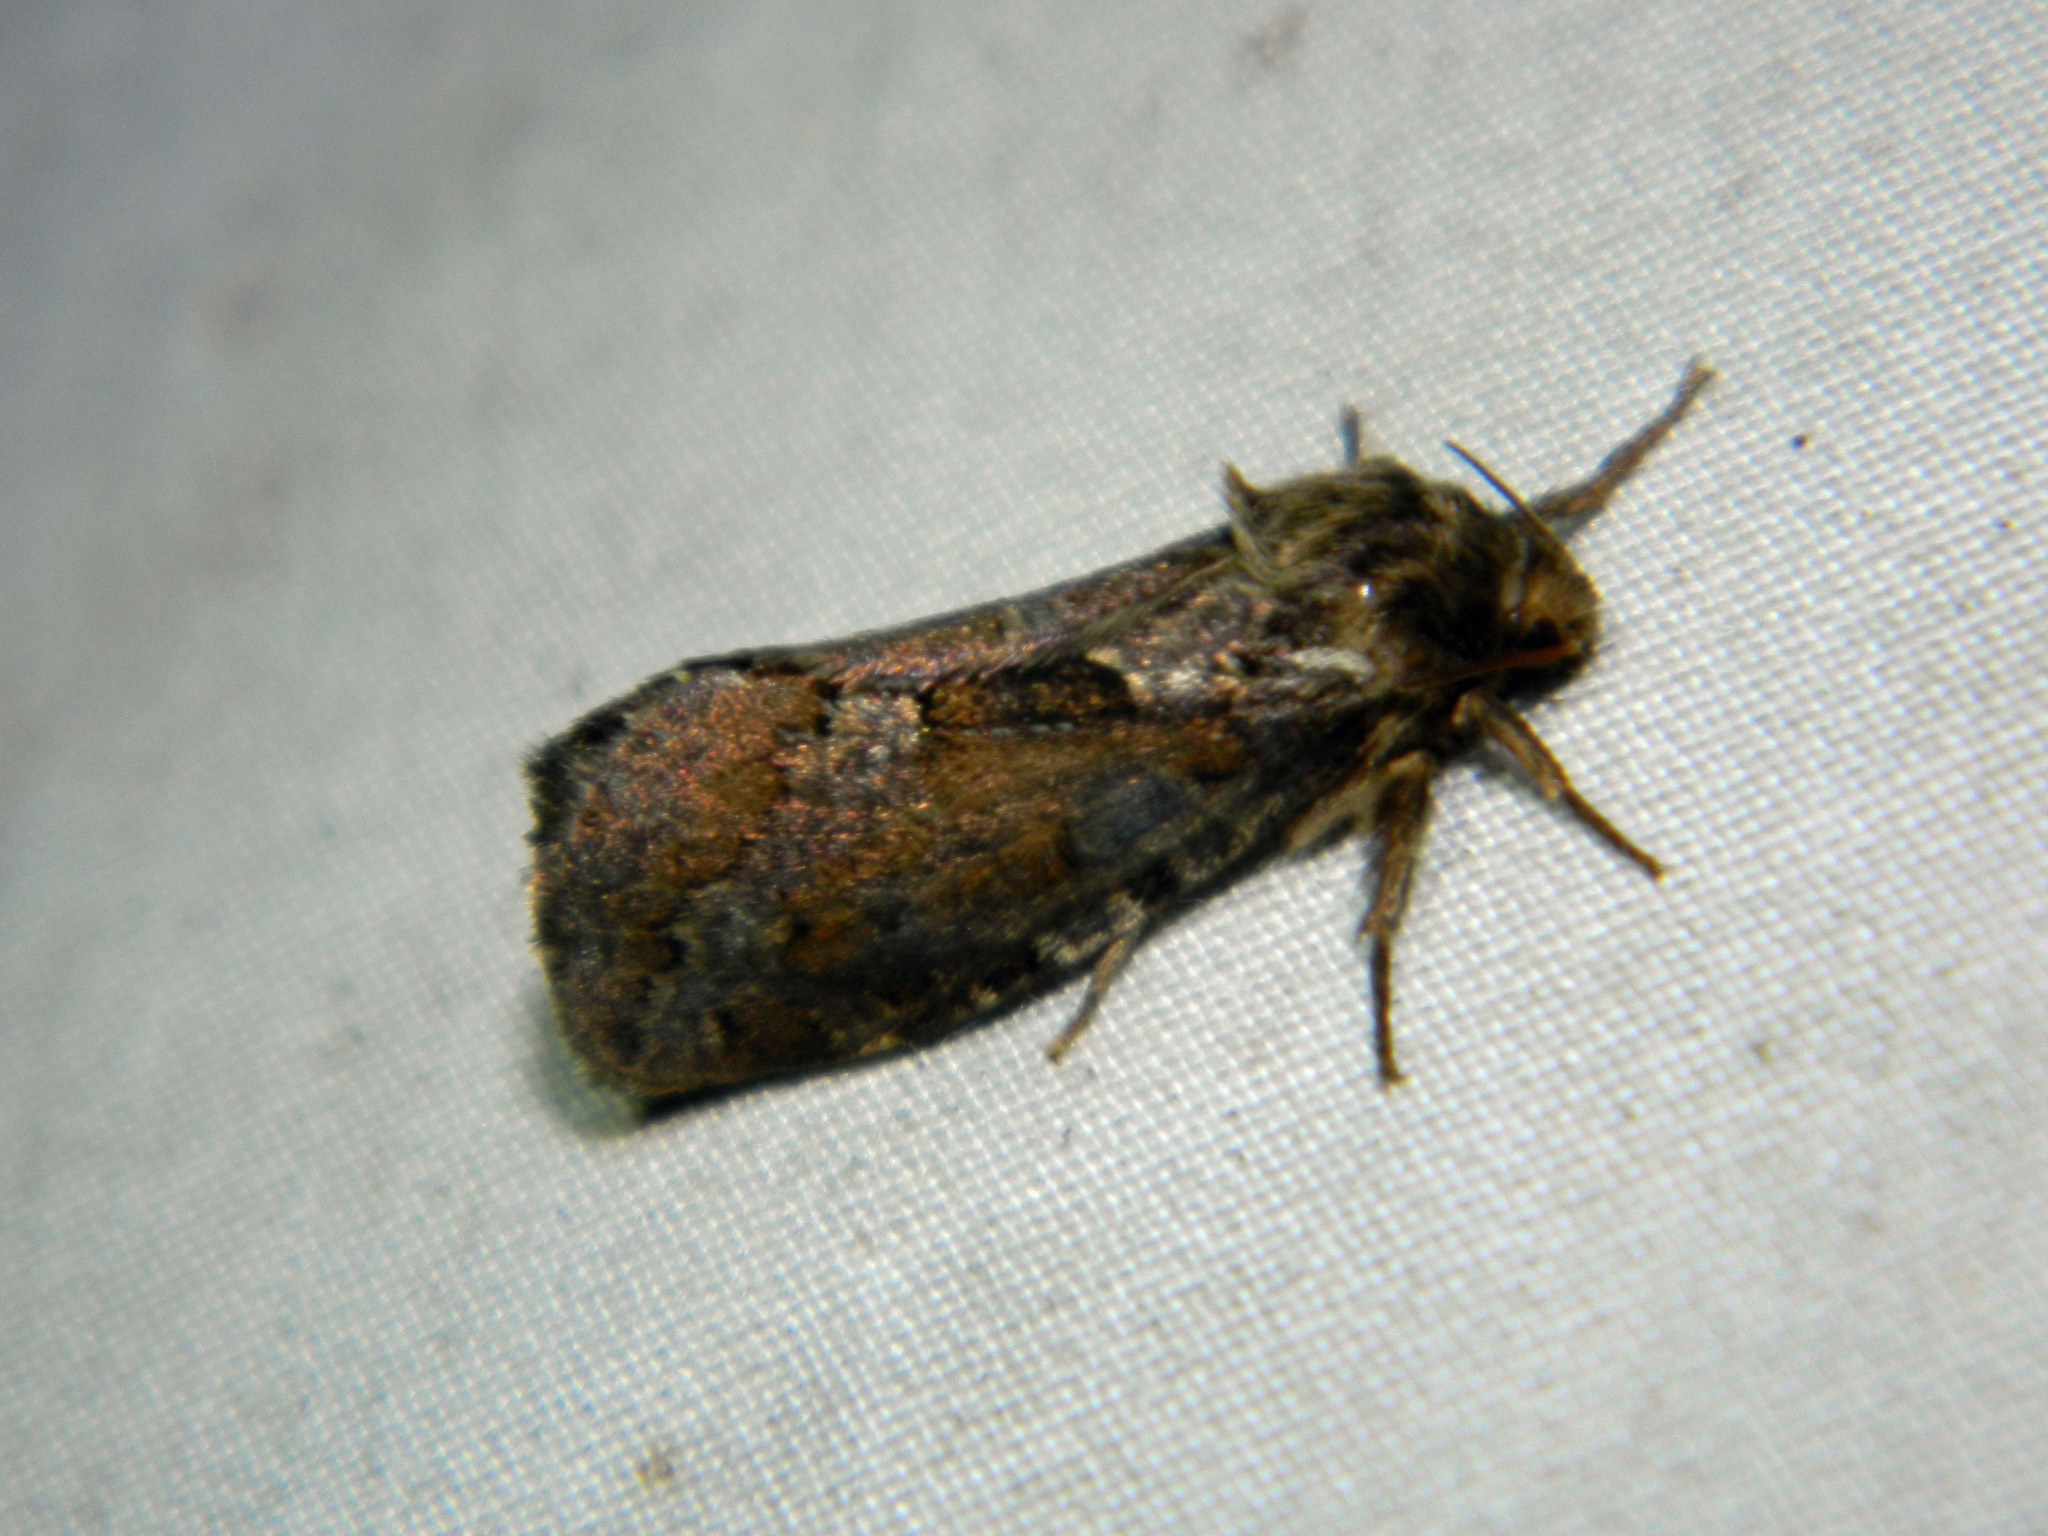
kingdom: Animalia
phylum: Arthropoda
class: Insecta
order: Lepidoptera
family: Hepialidae
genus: Korscheltellus
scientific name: Korscheltellus gracilis
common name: Conifer swift moth
